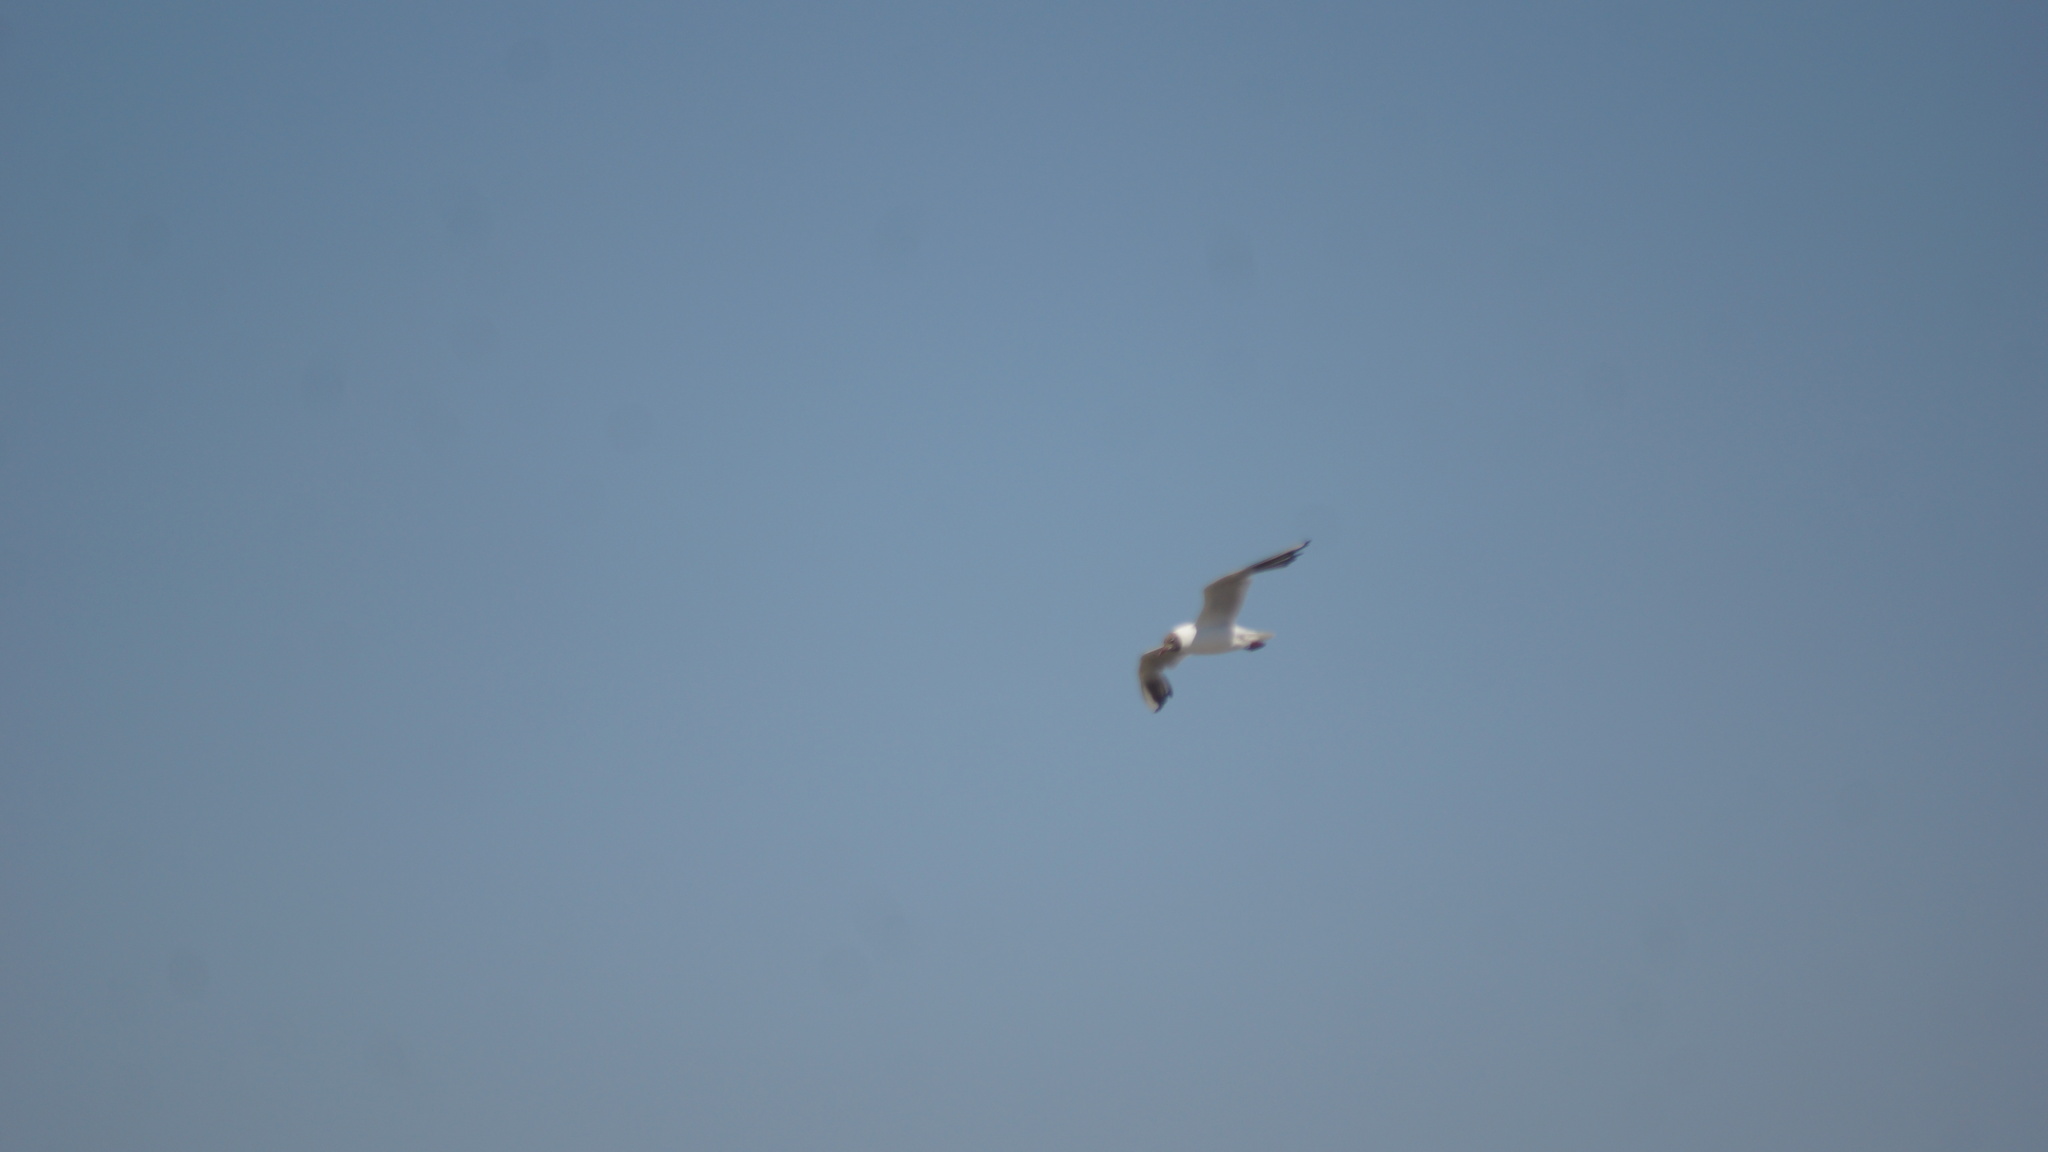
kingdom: Animalia
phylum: Chordata
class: Aves
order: Charadriiformes
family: Laridae
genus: Chroicocephalus
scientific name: Chroicocephalus ridibundus
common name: Black-headed gull
